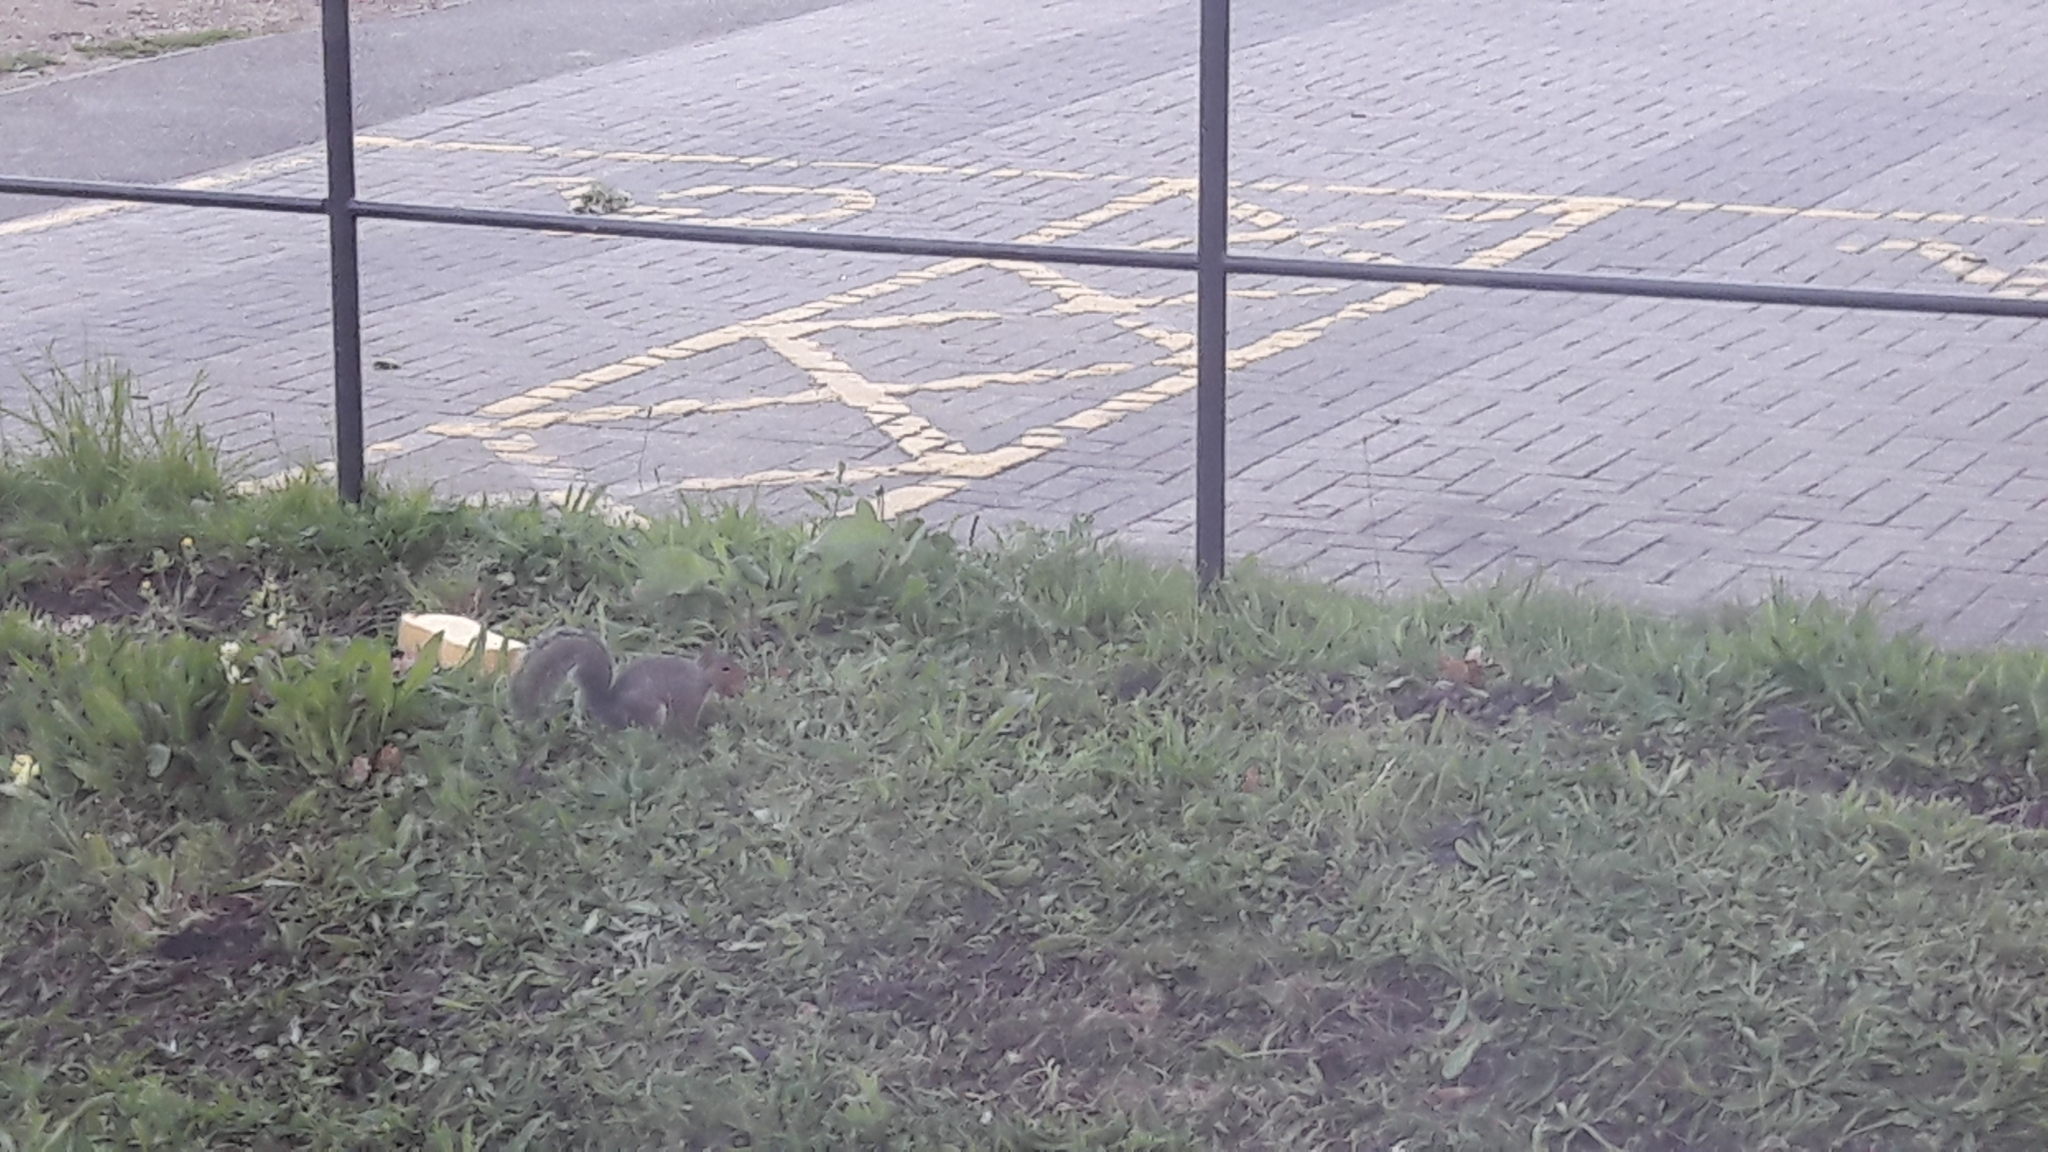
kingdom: Animalia
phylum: Chordata
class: Mammalia
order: Rodentia
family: Sciuridae
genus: Sciurus
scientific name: Sciurus carolinensis
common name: Eastern gray squirrel
